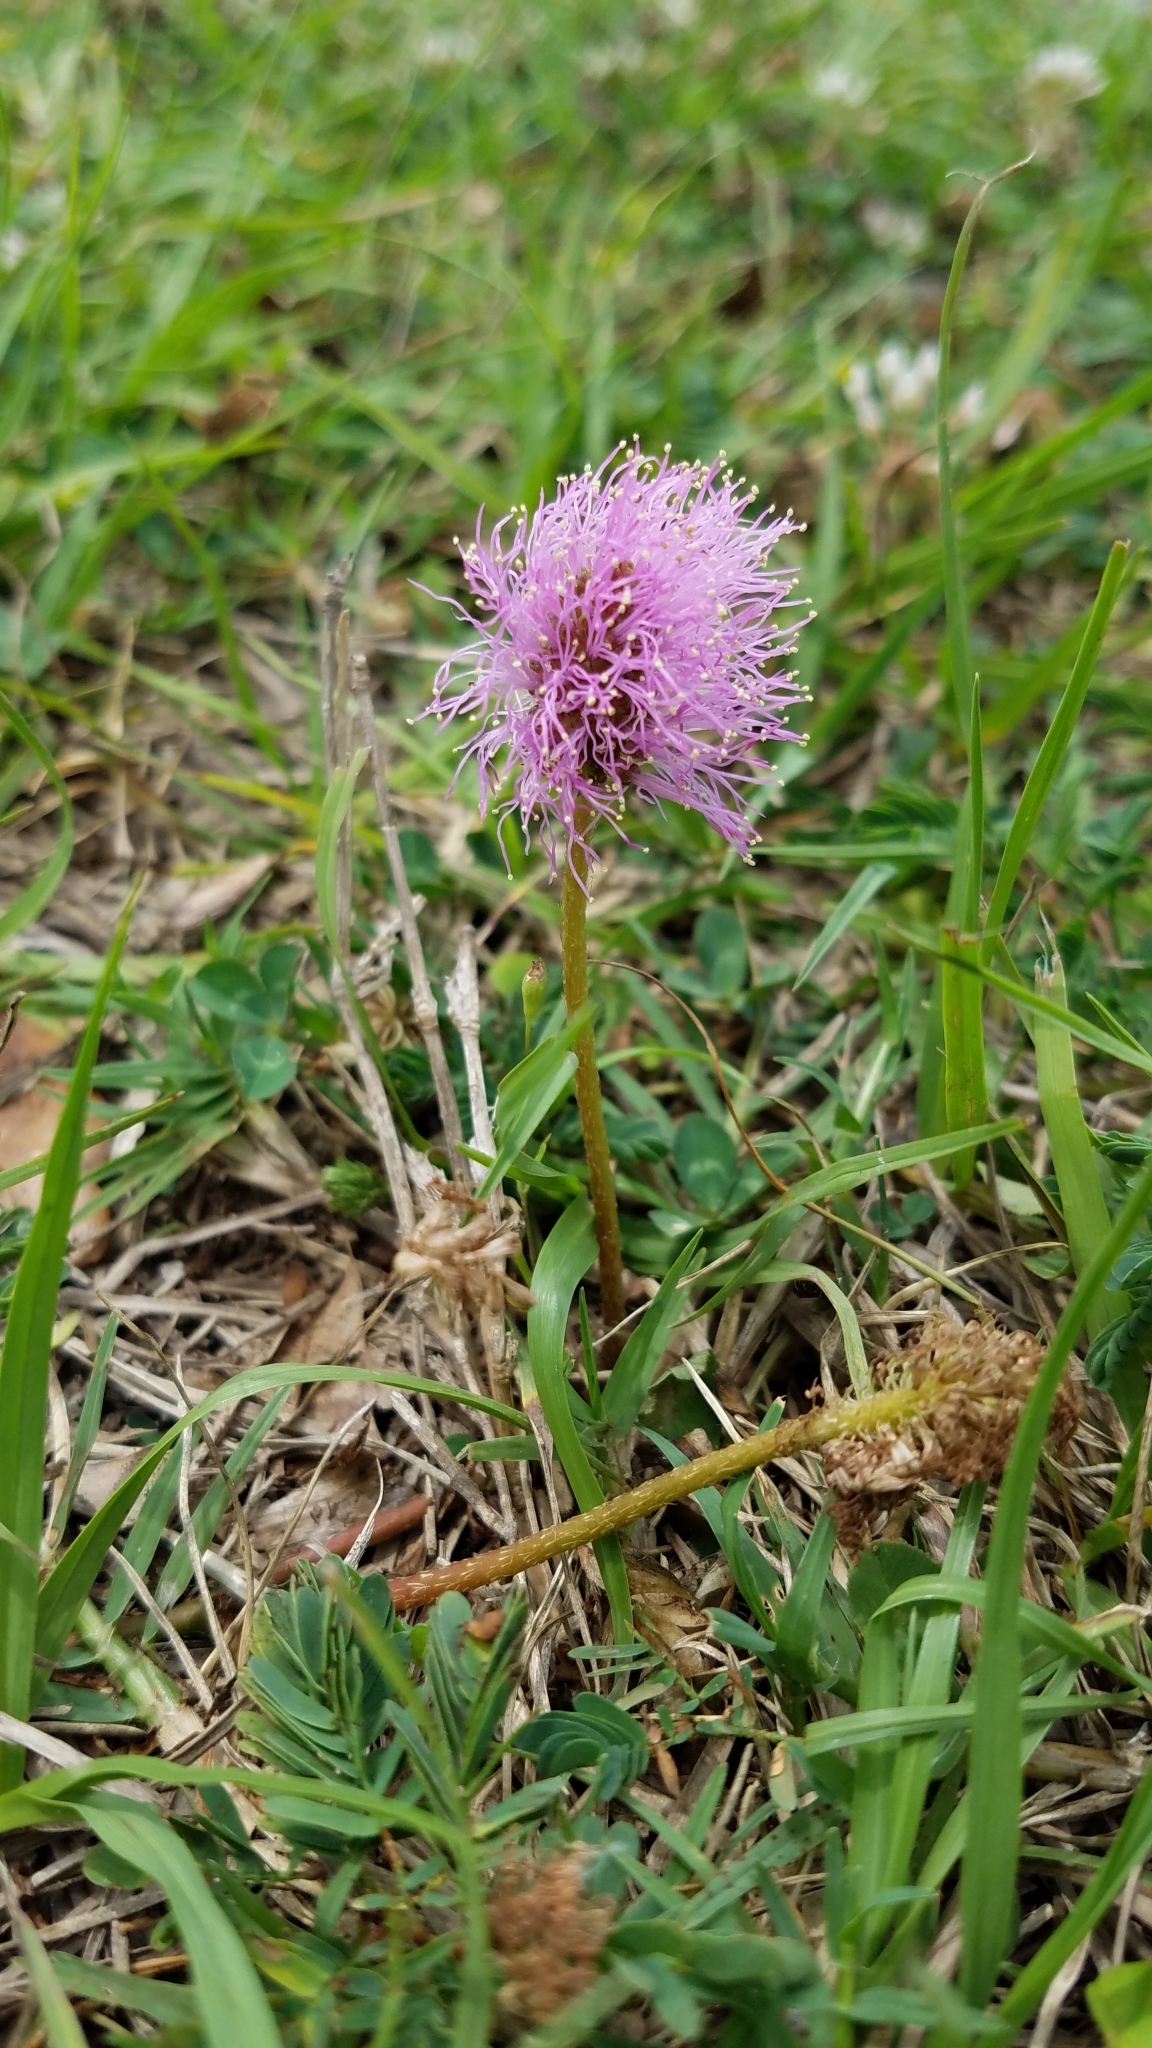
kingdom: Plantae
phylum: Tracheophyta
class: Magnoliopsida
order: Fabales
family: Fabaceae
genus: Mimosa
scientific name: Mimosa strigillosa
